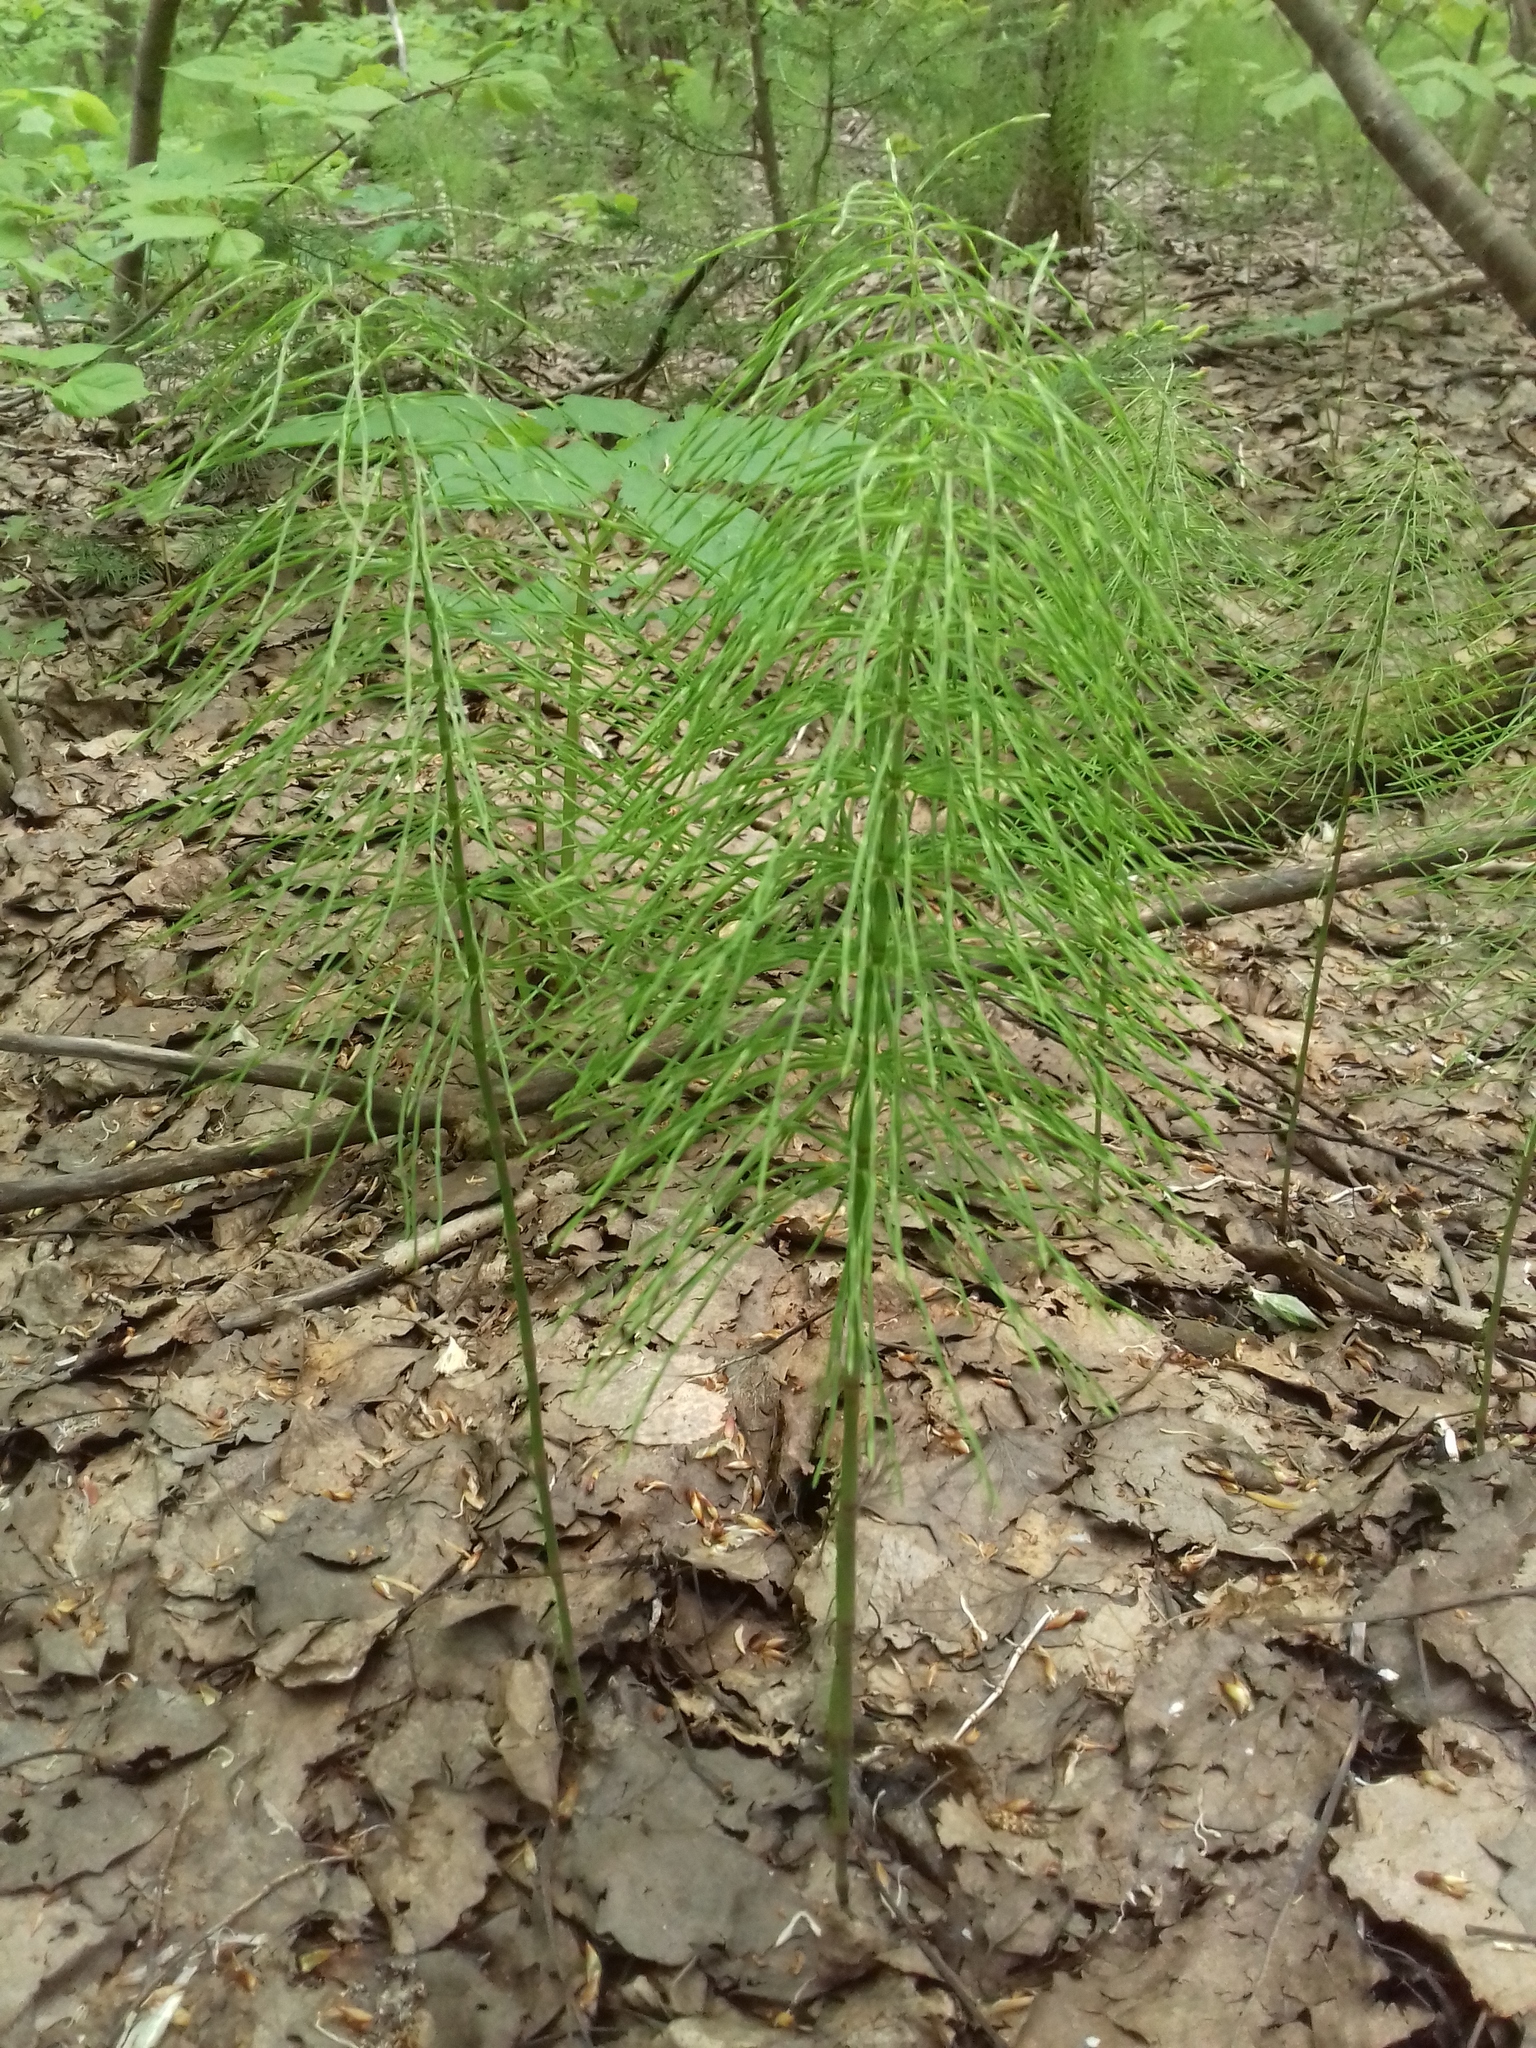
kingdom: Plantae
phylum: Tracheophyta
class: Polypodiopsida
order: Equisetales
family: Equisetaceae
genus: Equisetum
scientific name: Equisetum pratense
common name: Meadow horsetail
